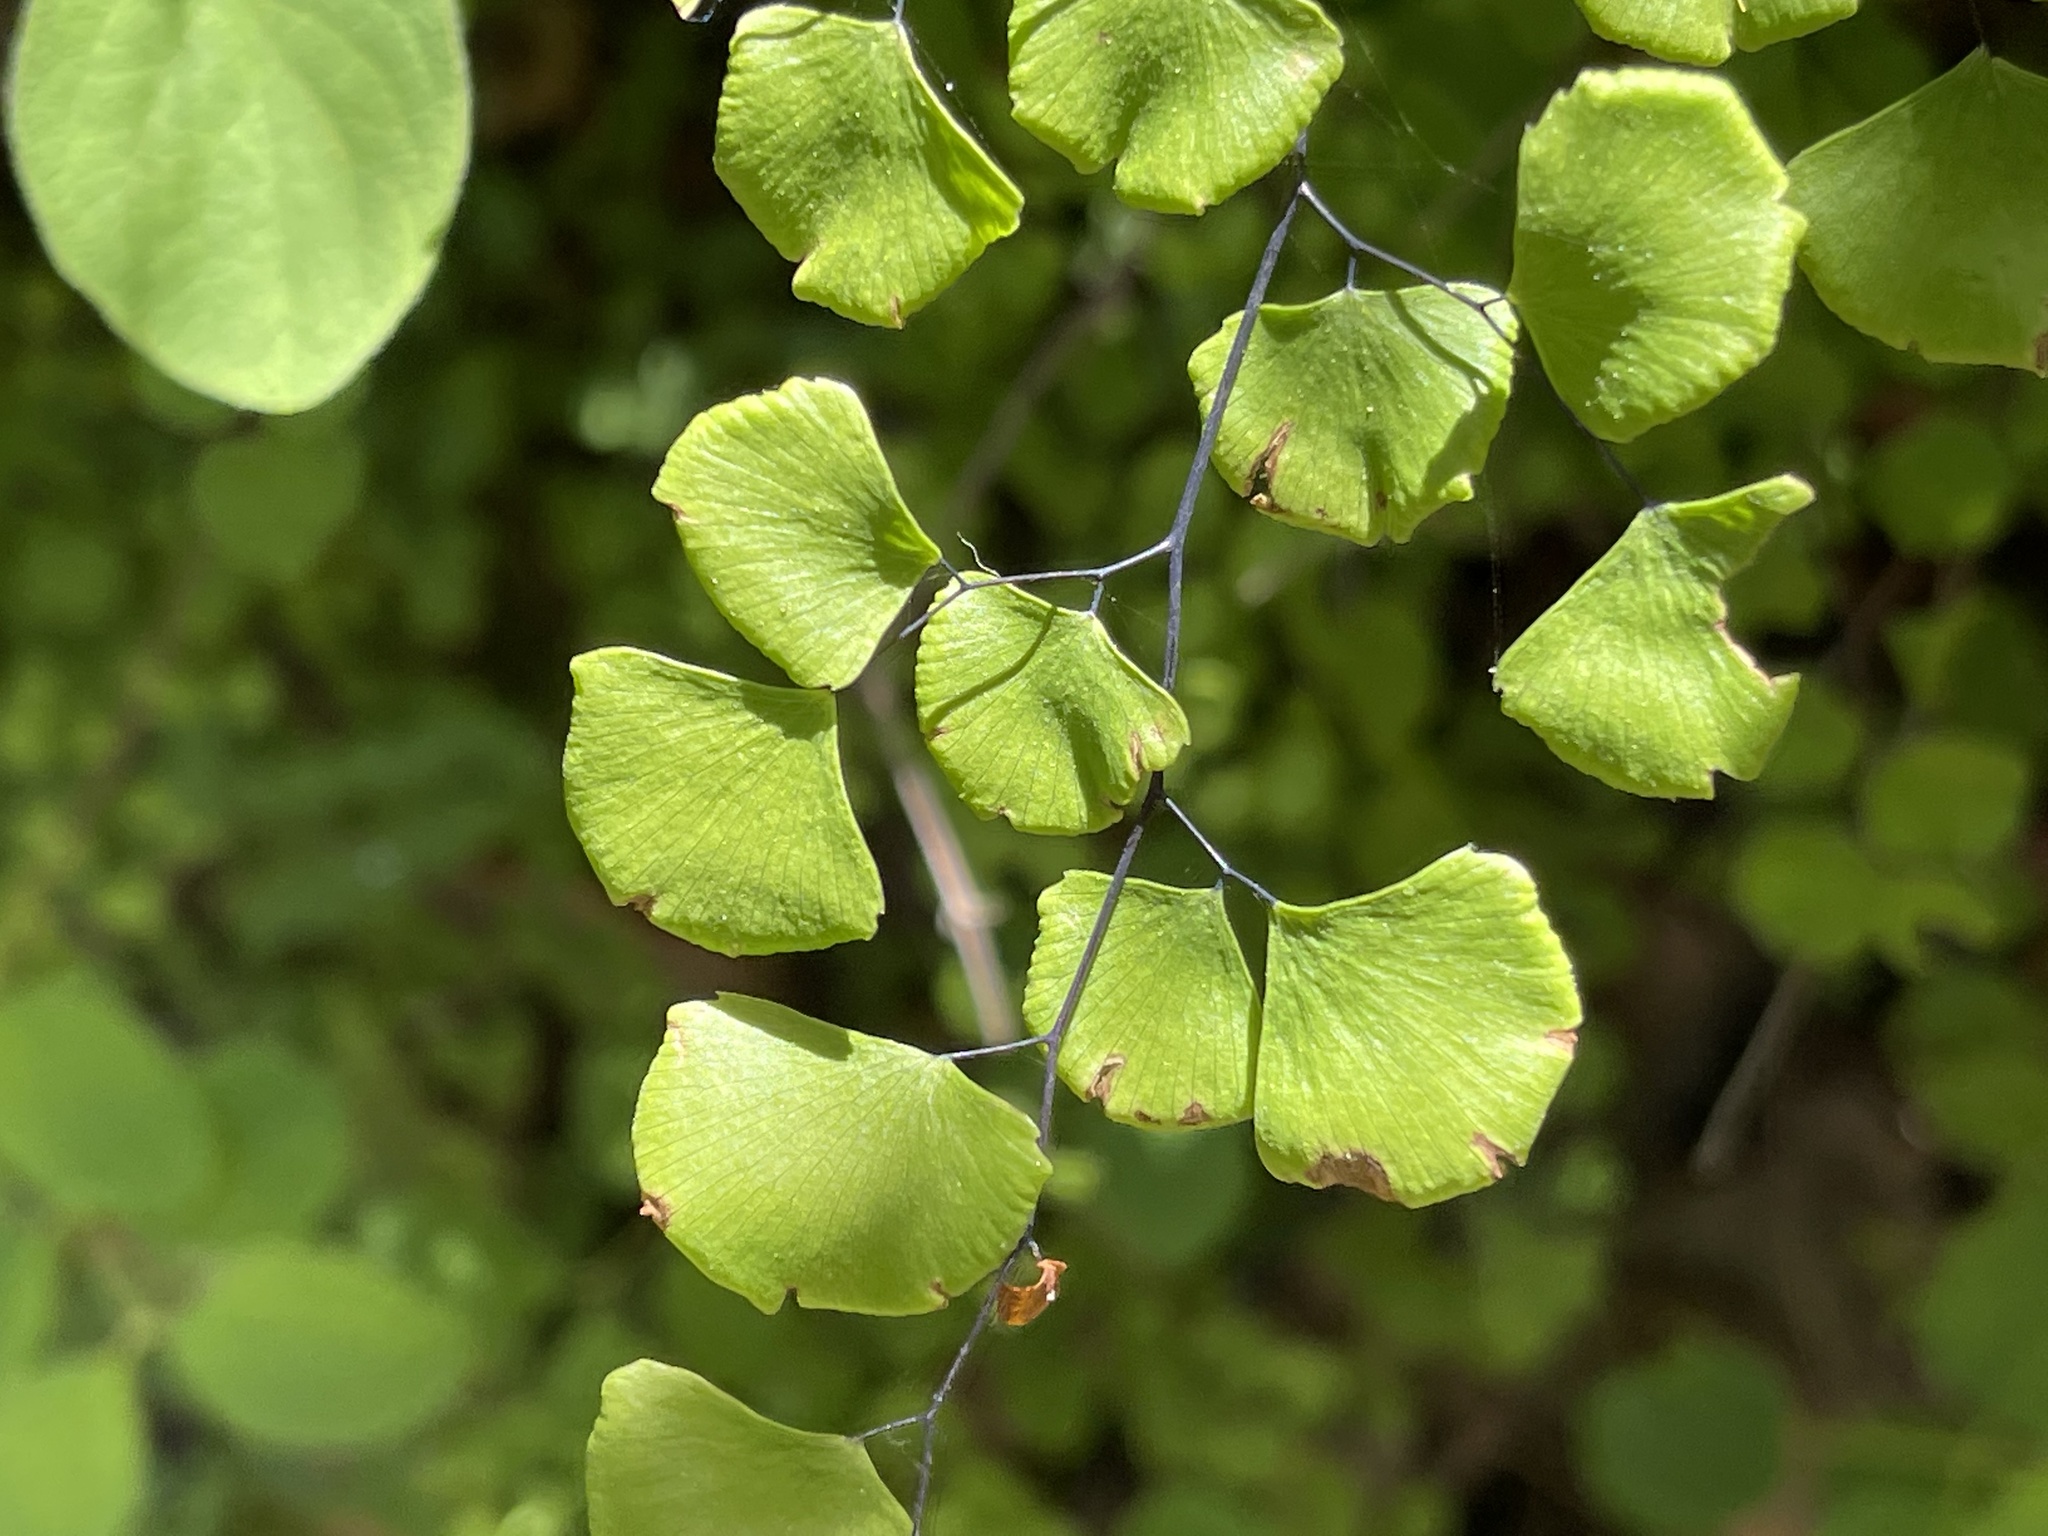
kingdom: Plantae
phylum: Tracheophyta
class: Polypodiopsida
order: Polypodiales
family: Pteridaceae
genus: Adiantum
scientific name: Adiantum jordanii
